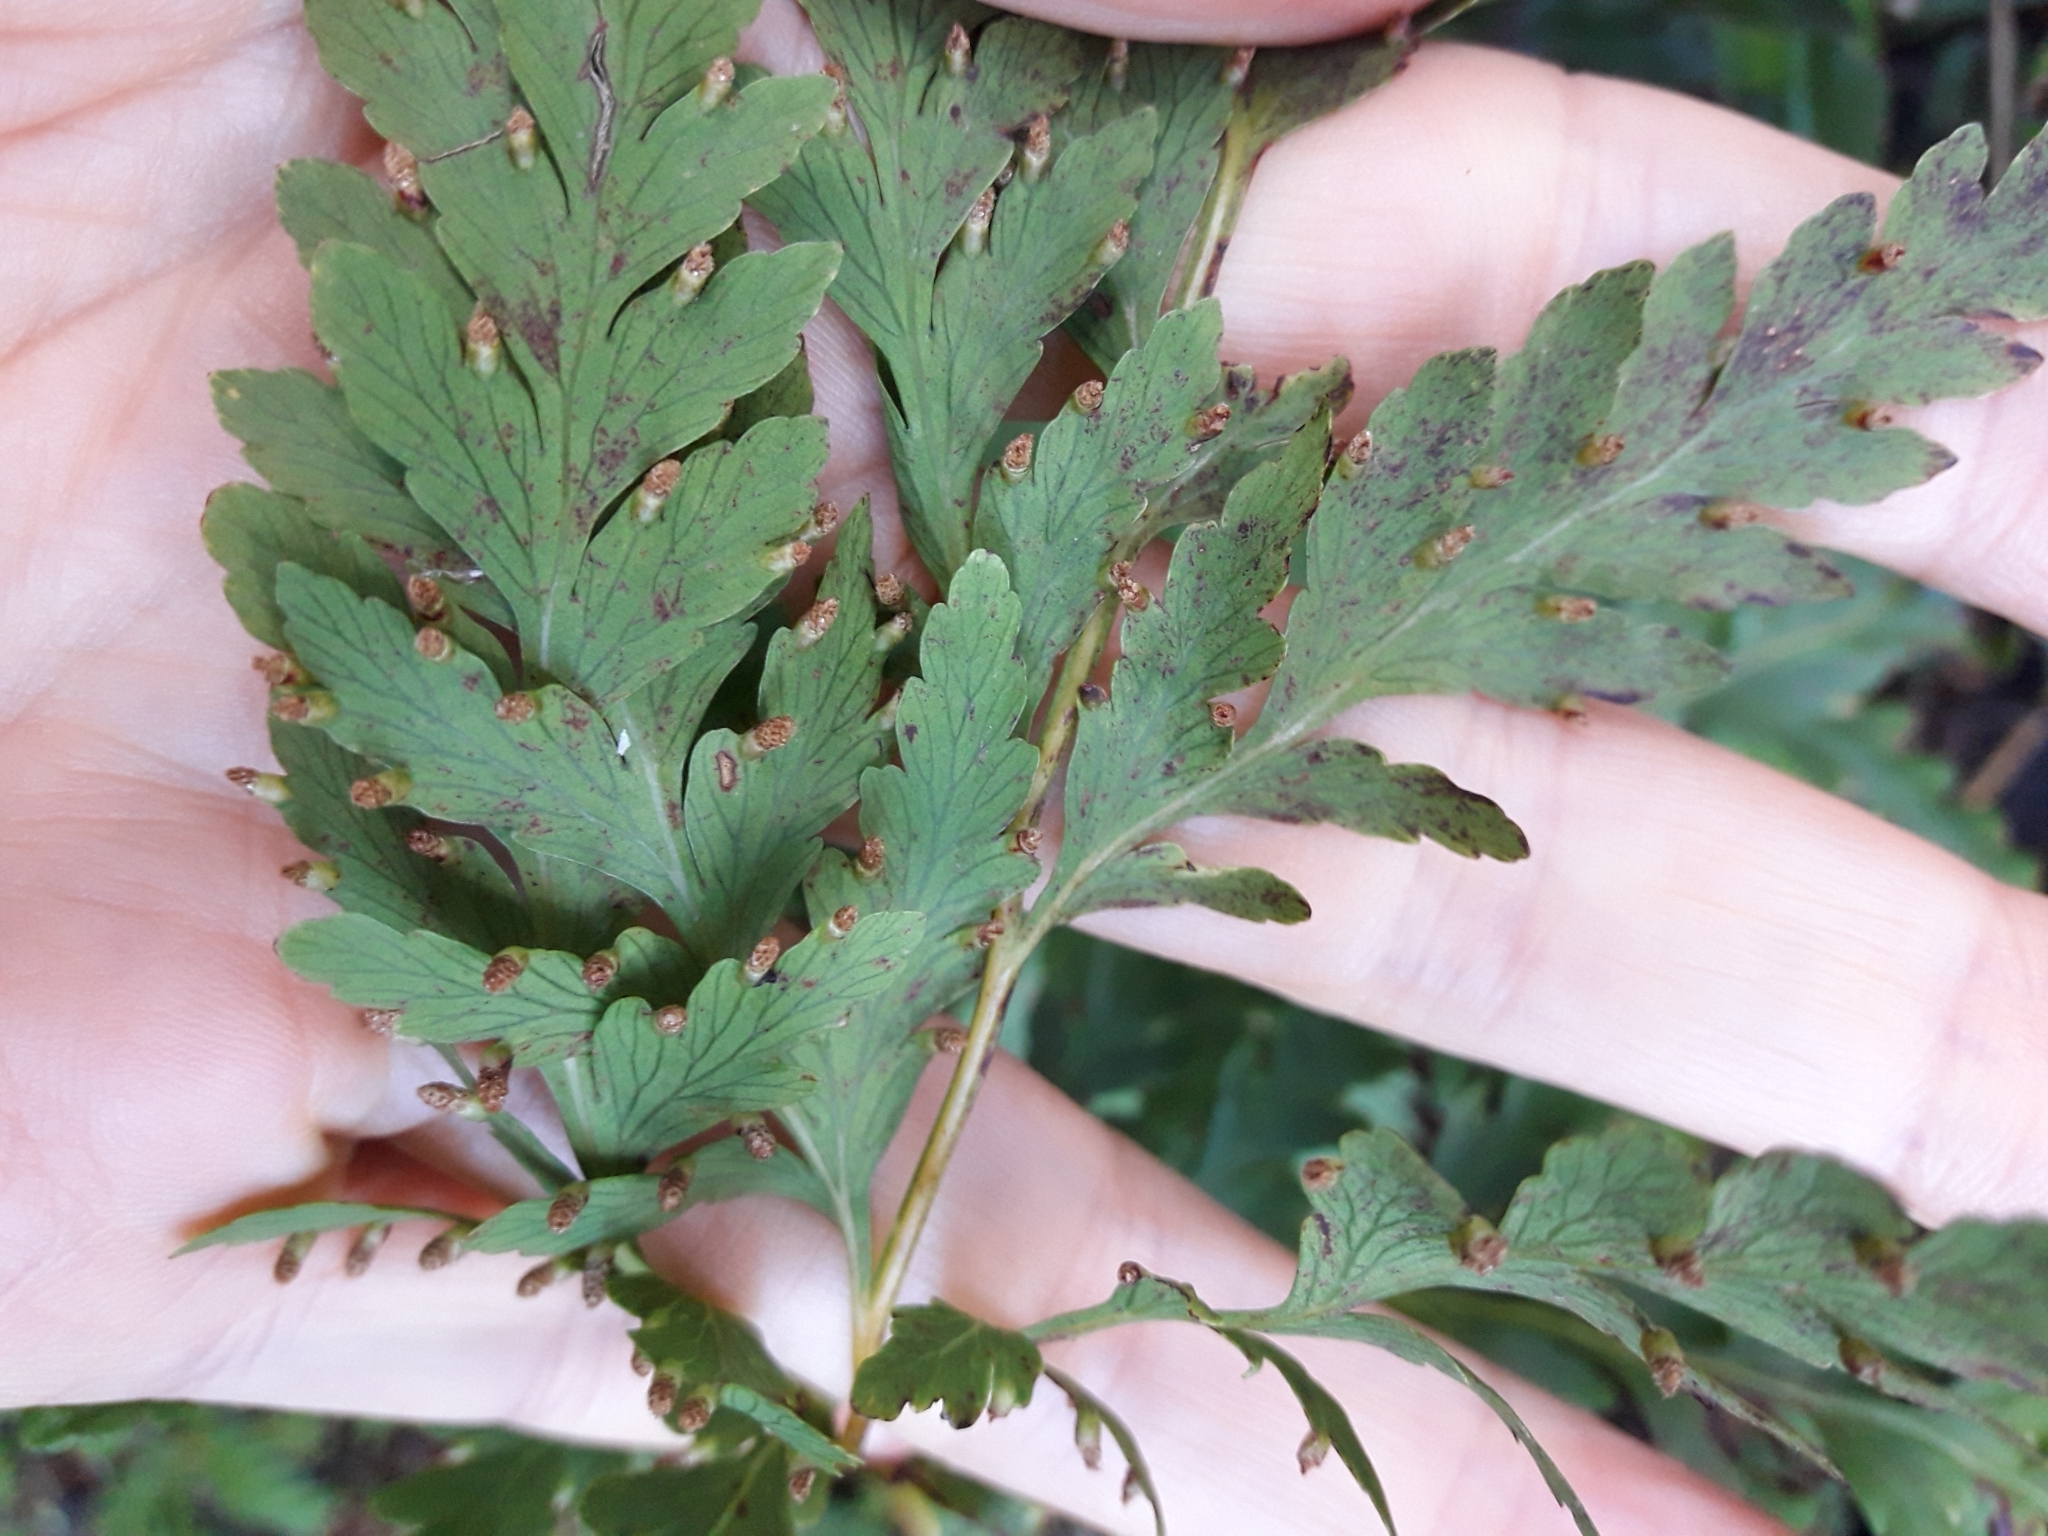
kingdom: Plantae
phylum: Tracheophyta
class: Polypodiopsida
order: Cyatheales
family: Loxsomataceae
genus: Loxsoma
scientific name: Loxsoma cunninghamii
